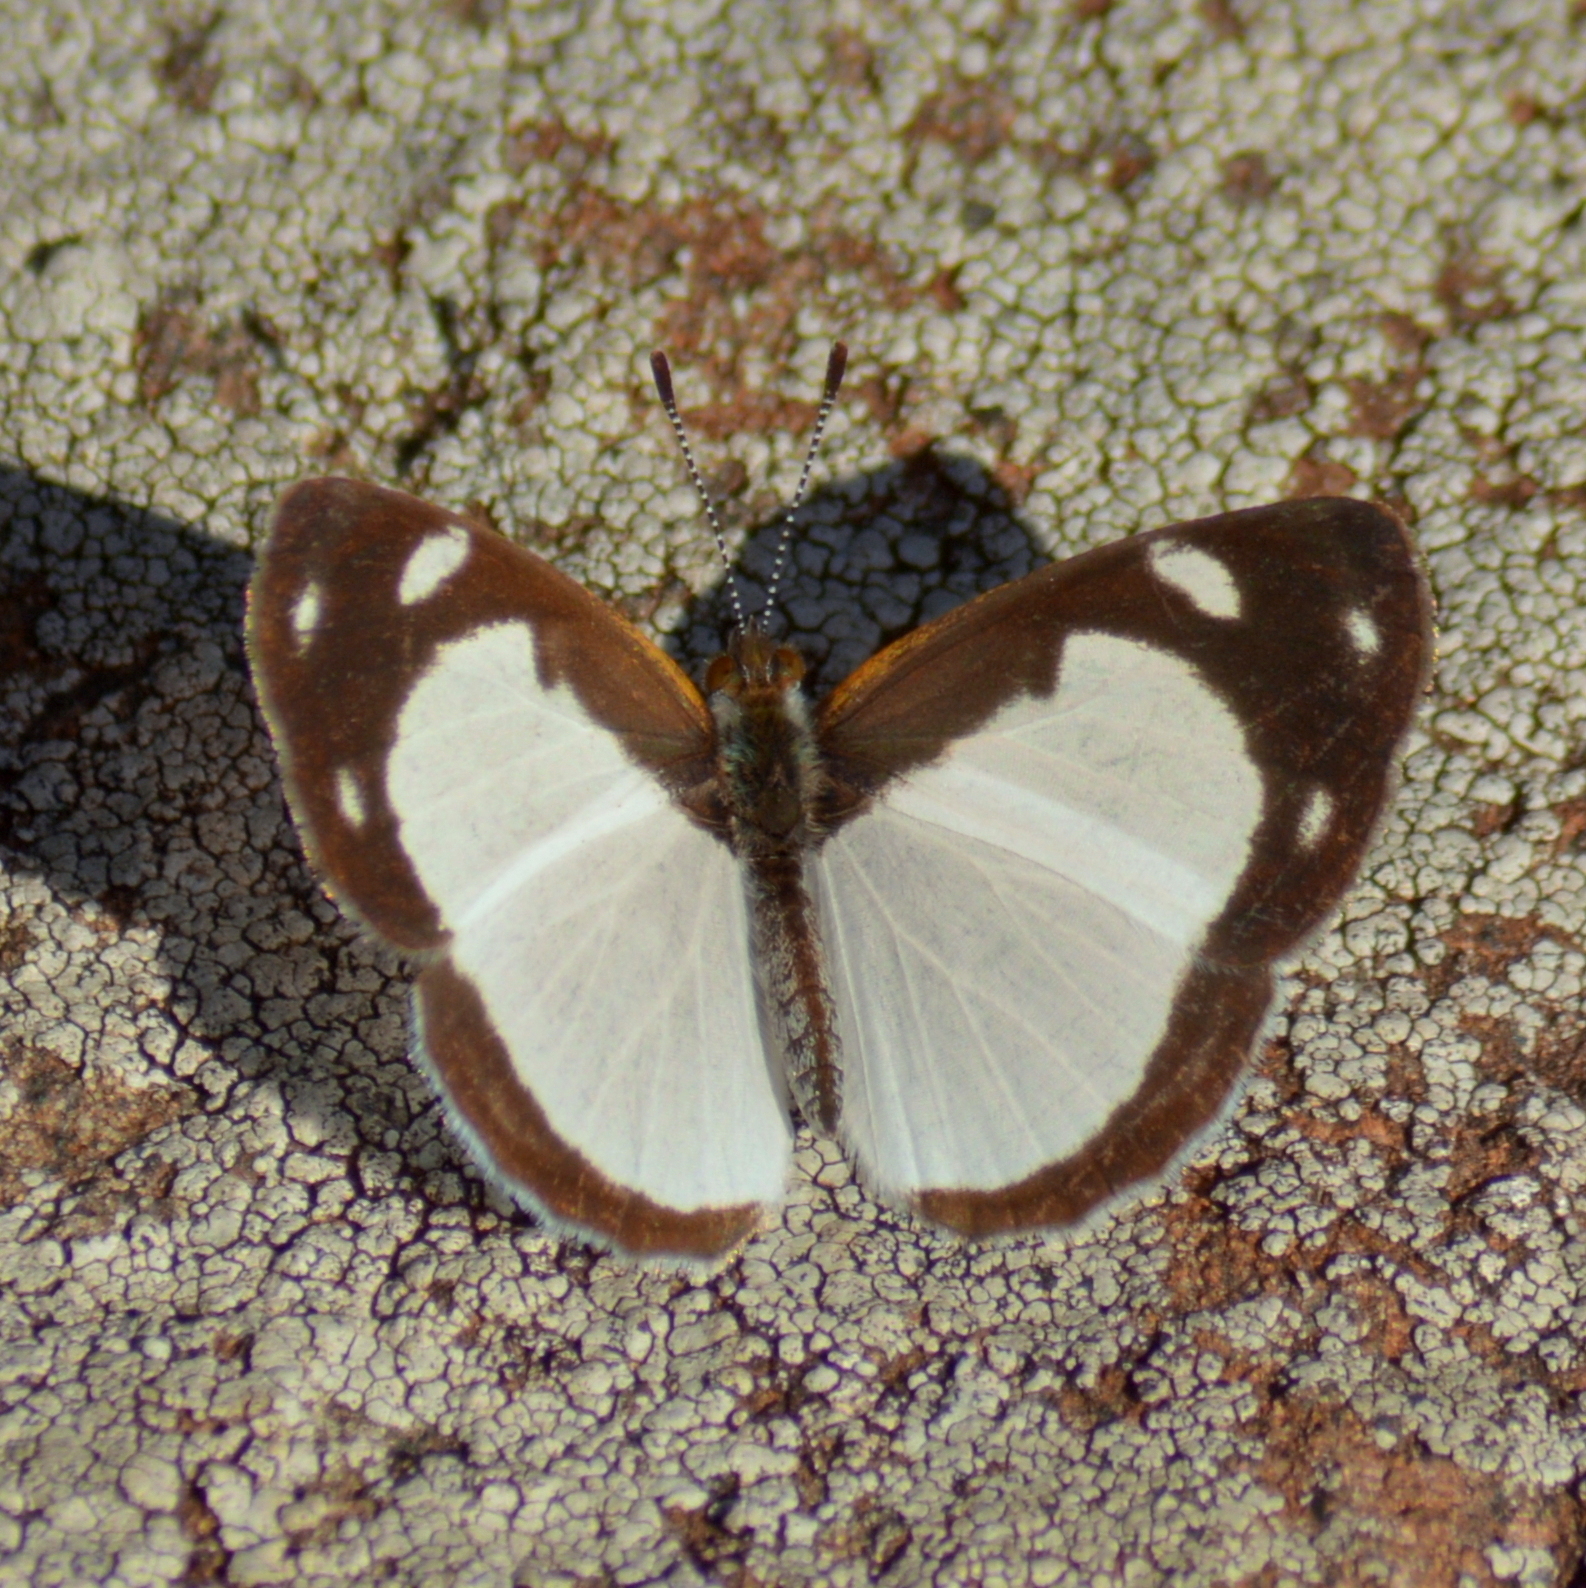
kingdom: Animalia
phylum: Arthropoda
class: Insecta
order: Lepidoptera
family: Nymphalidae
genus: Dynamine
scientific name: Dynamine agacles
